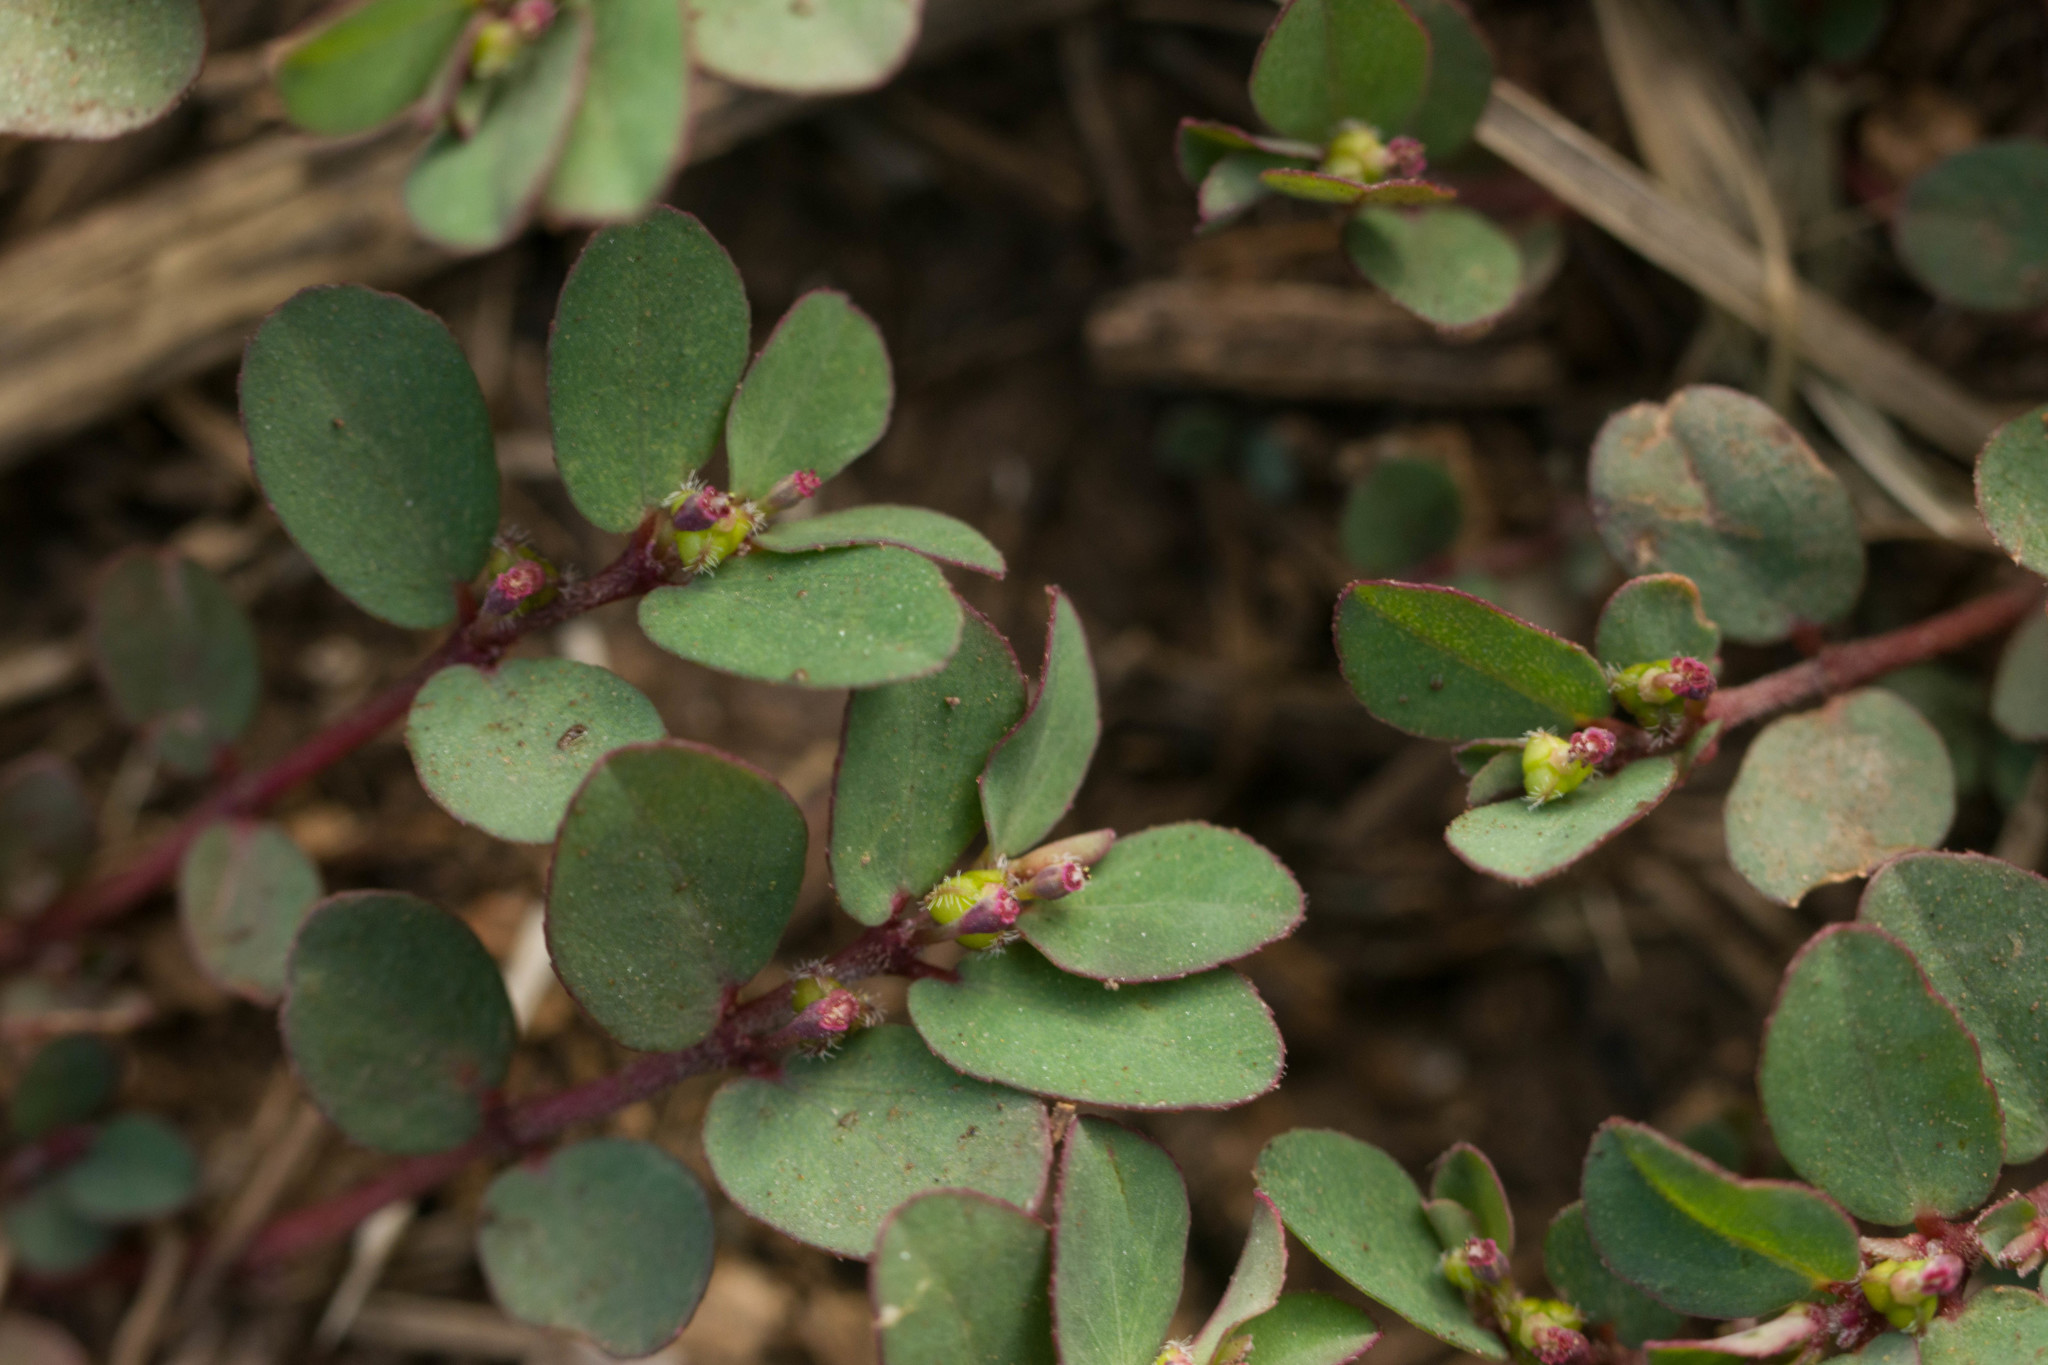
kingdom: Plantae
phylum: Tracheophyta
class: Magnoliopsida
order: Malpighiales
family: Euphorbiaceae
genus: Euphorbia
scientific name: Euphorbia prostrata
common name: Prostrate sandmat
